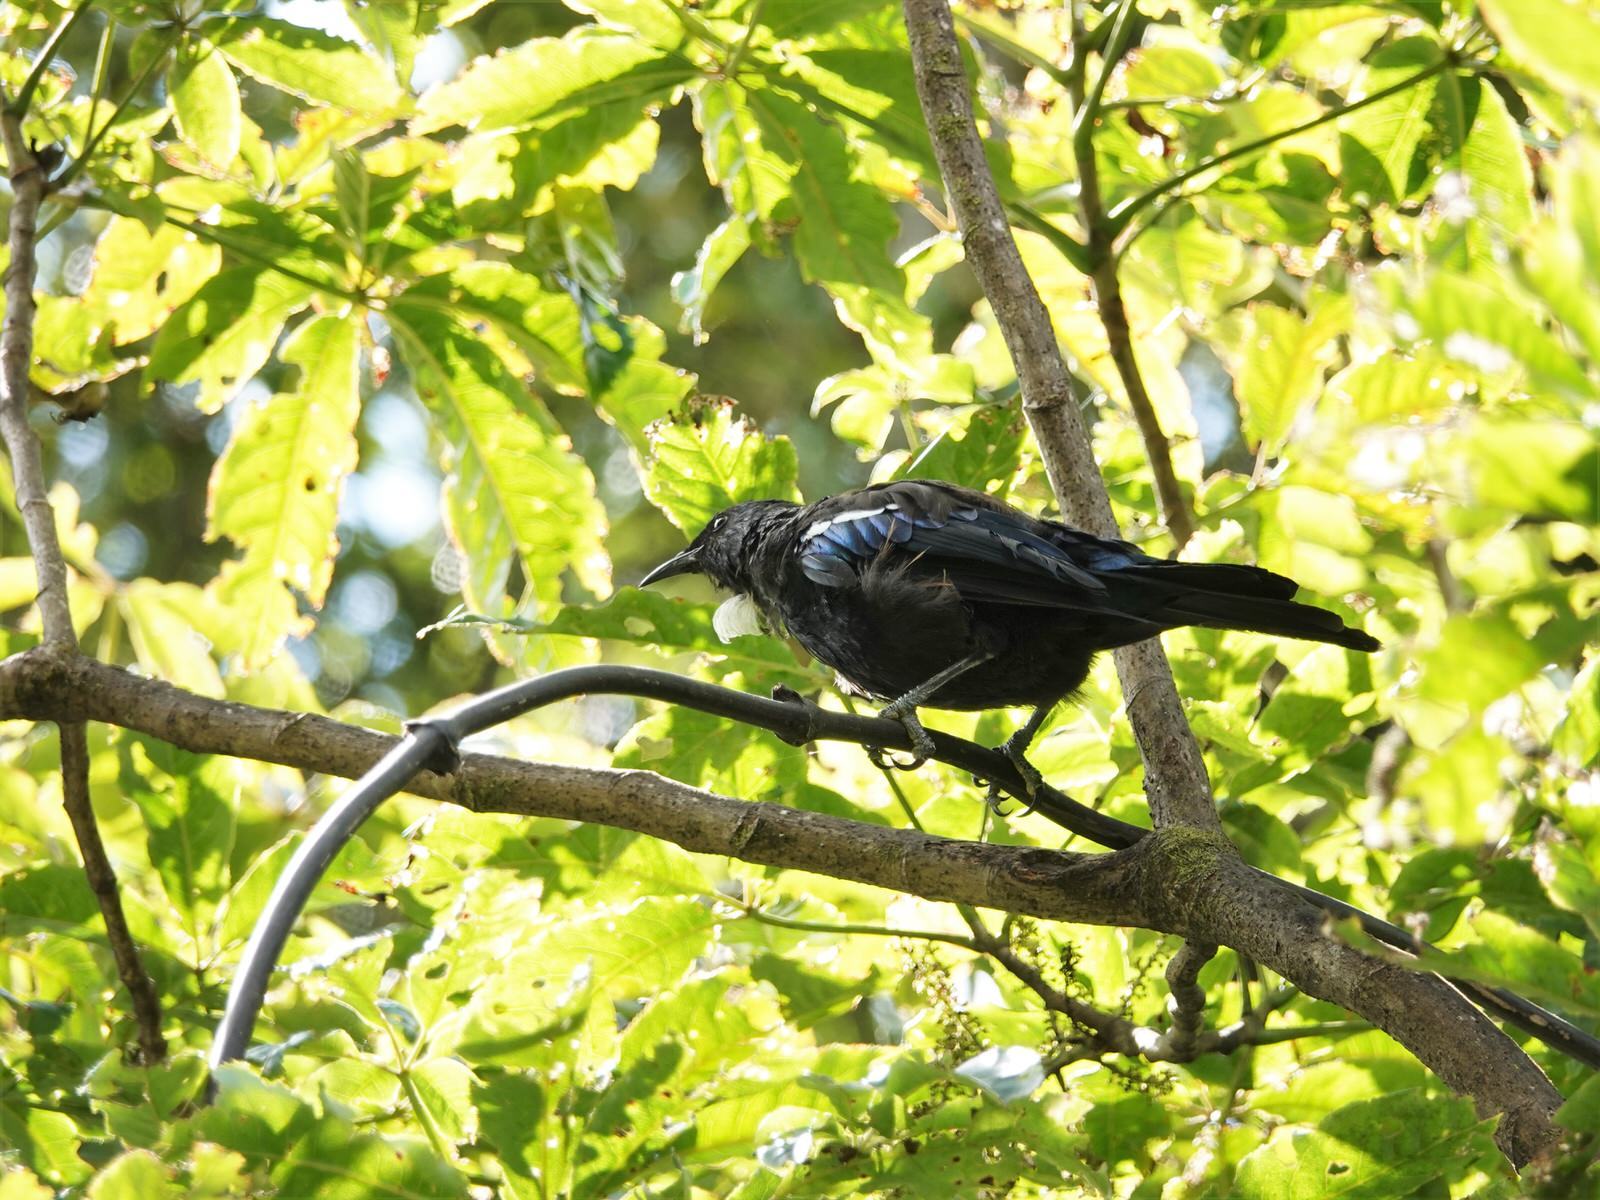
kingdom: Animalia
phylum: Chordata
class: Aves
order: Passeriformes
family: Meliphagidae
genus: Prosthemadera
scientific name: Prosthemadera novaeseelandiae
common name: Tui
